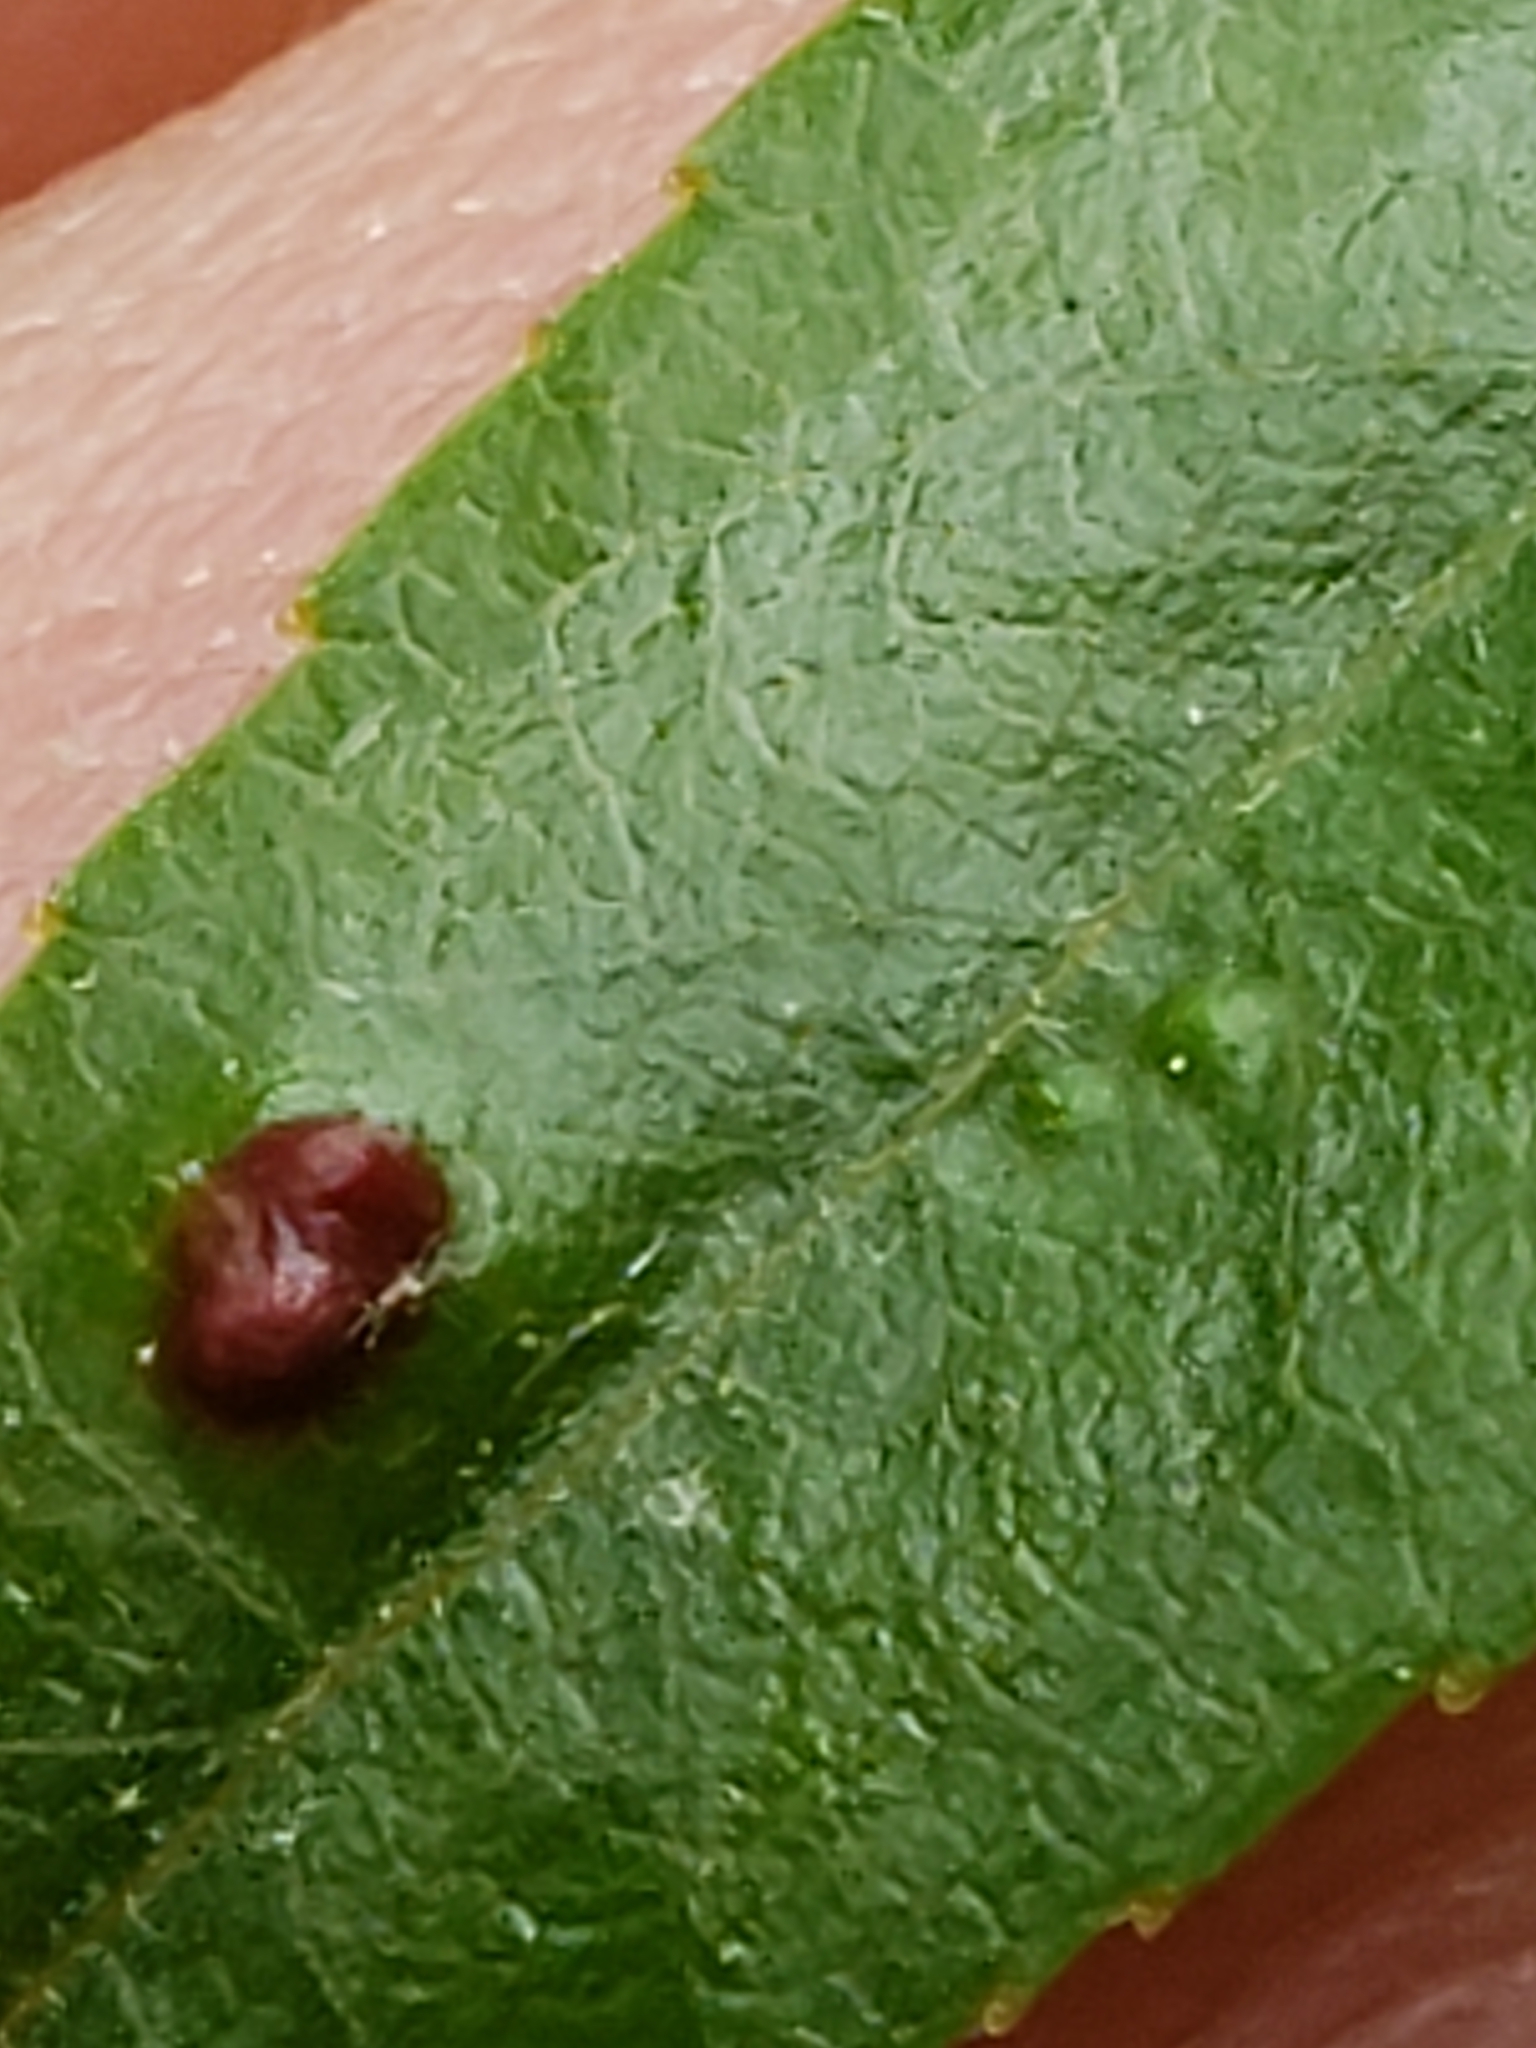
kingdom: Animalia
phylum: Arthropoda
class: Arachnida
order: Trombidiformes
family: Eriophyidae
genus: Aculus
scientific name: Aculus tetanothrix
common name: Willow bead gall mite
